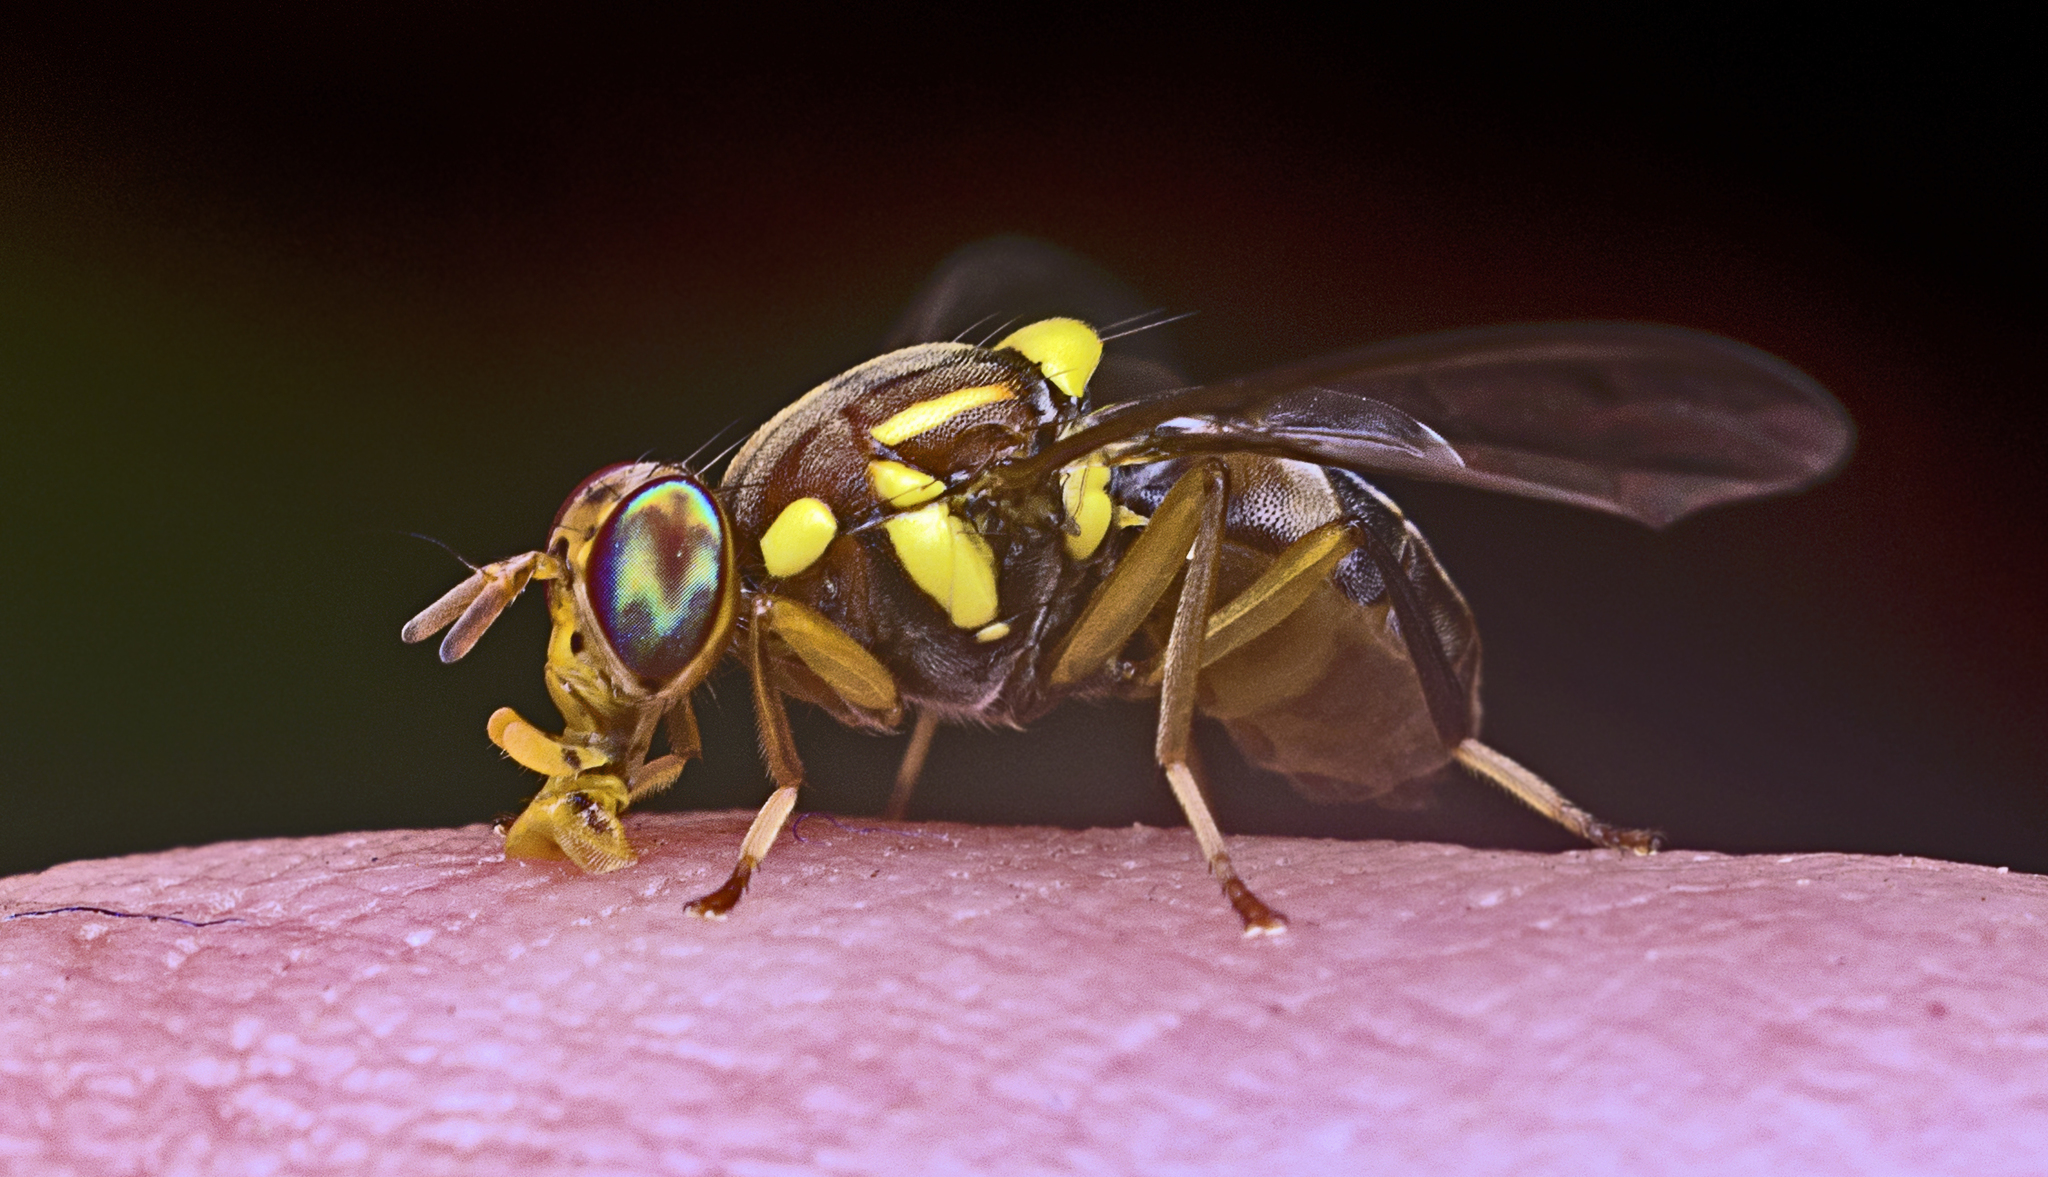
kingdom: Animalia
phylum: Arthropoda
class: Insecta
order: Diptera
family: Tephritidae
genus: Bactrocera
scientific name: Bactrocera tryoni
